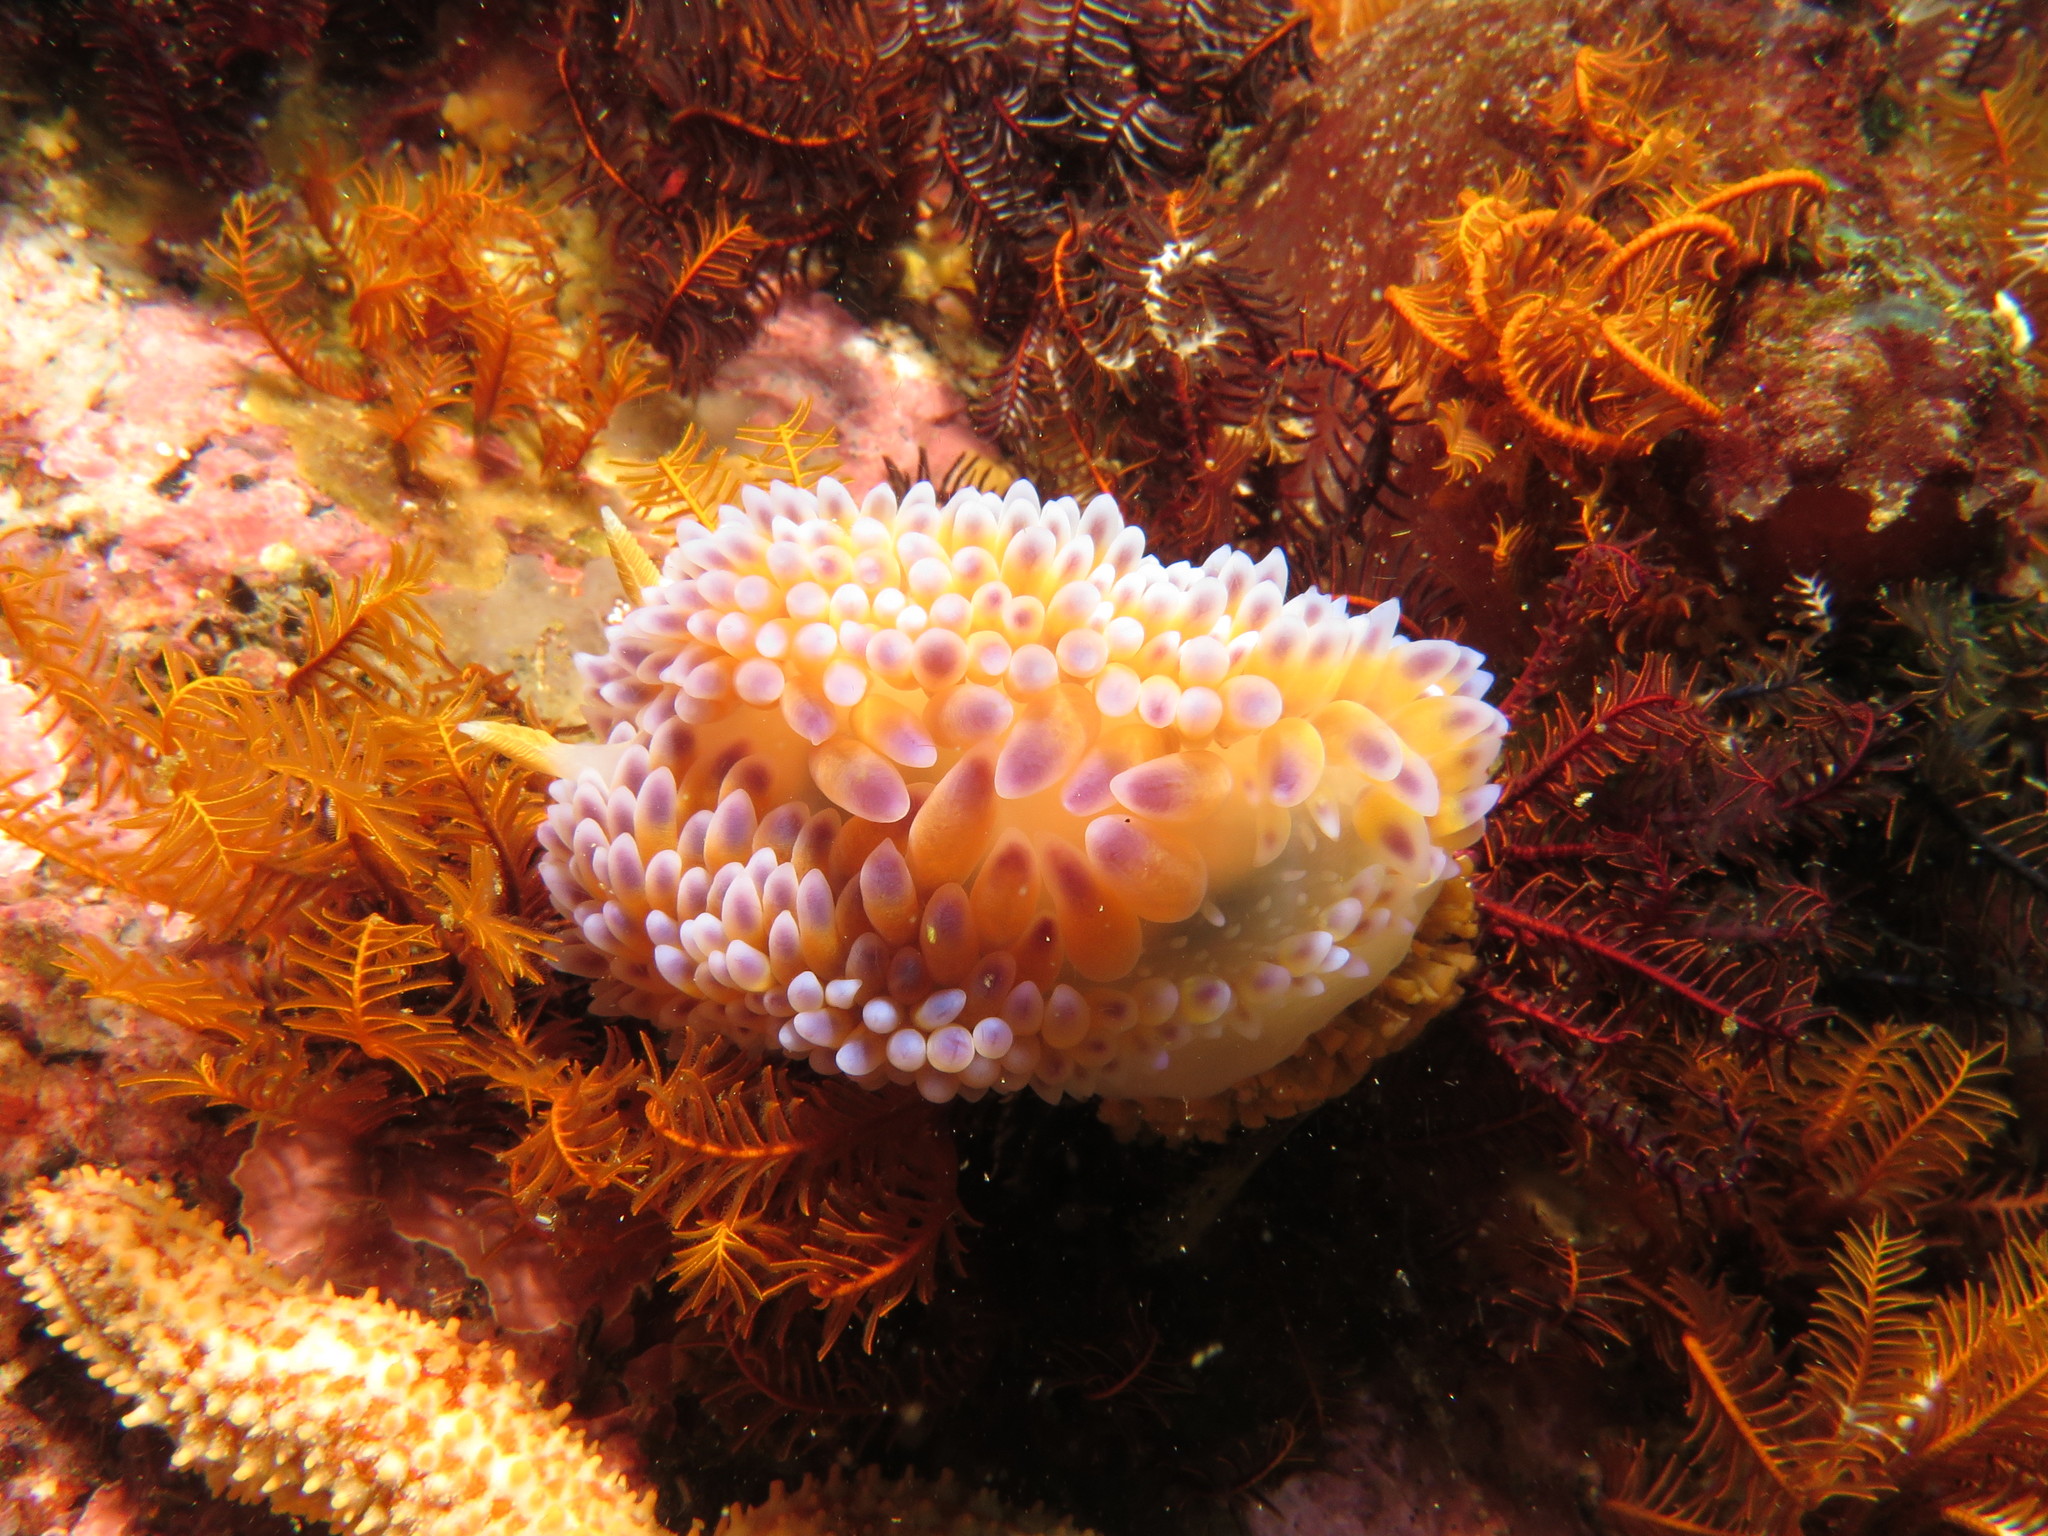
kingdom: Animalia
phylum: Mollusca
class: Gastropoda
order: Nudibranchia
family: Janolidae
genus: Bonisa
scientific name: Bonisa nakaza
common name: Gas flame nudibranch
